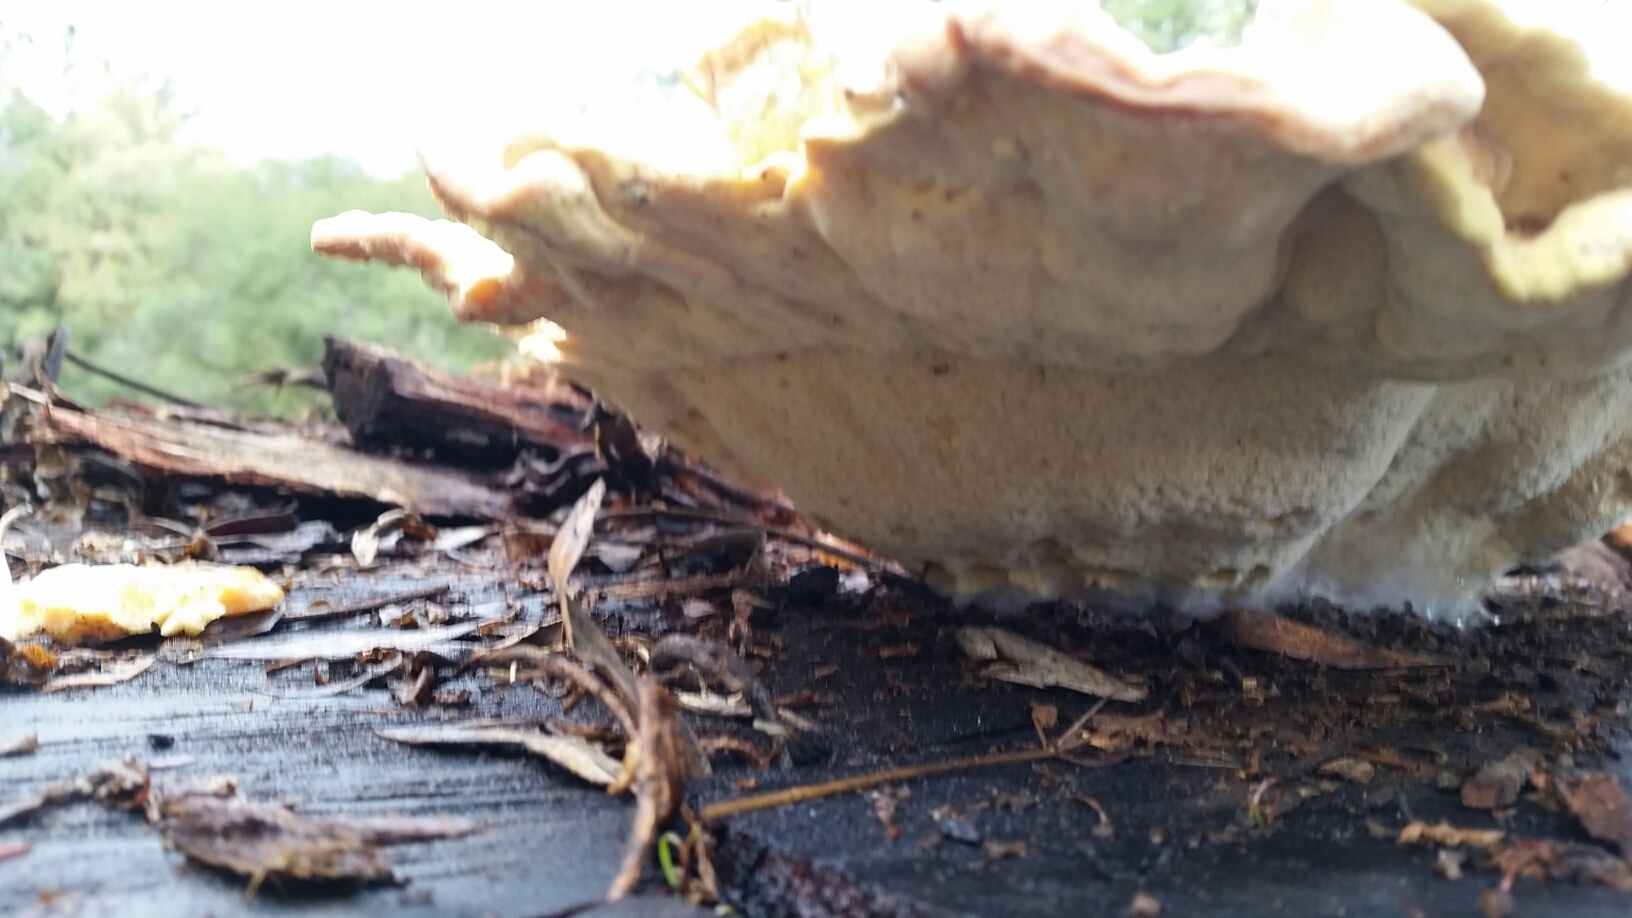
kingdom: Fungi
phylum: Basidiomycota
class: Agaricomycetes
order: Polyporales
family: Laetiporaceae
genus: Laetiporus
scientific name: Laetiporus gilbertsonii
